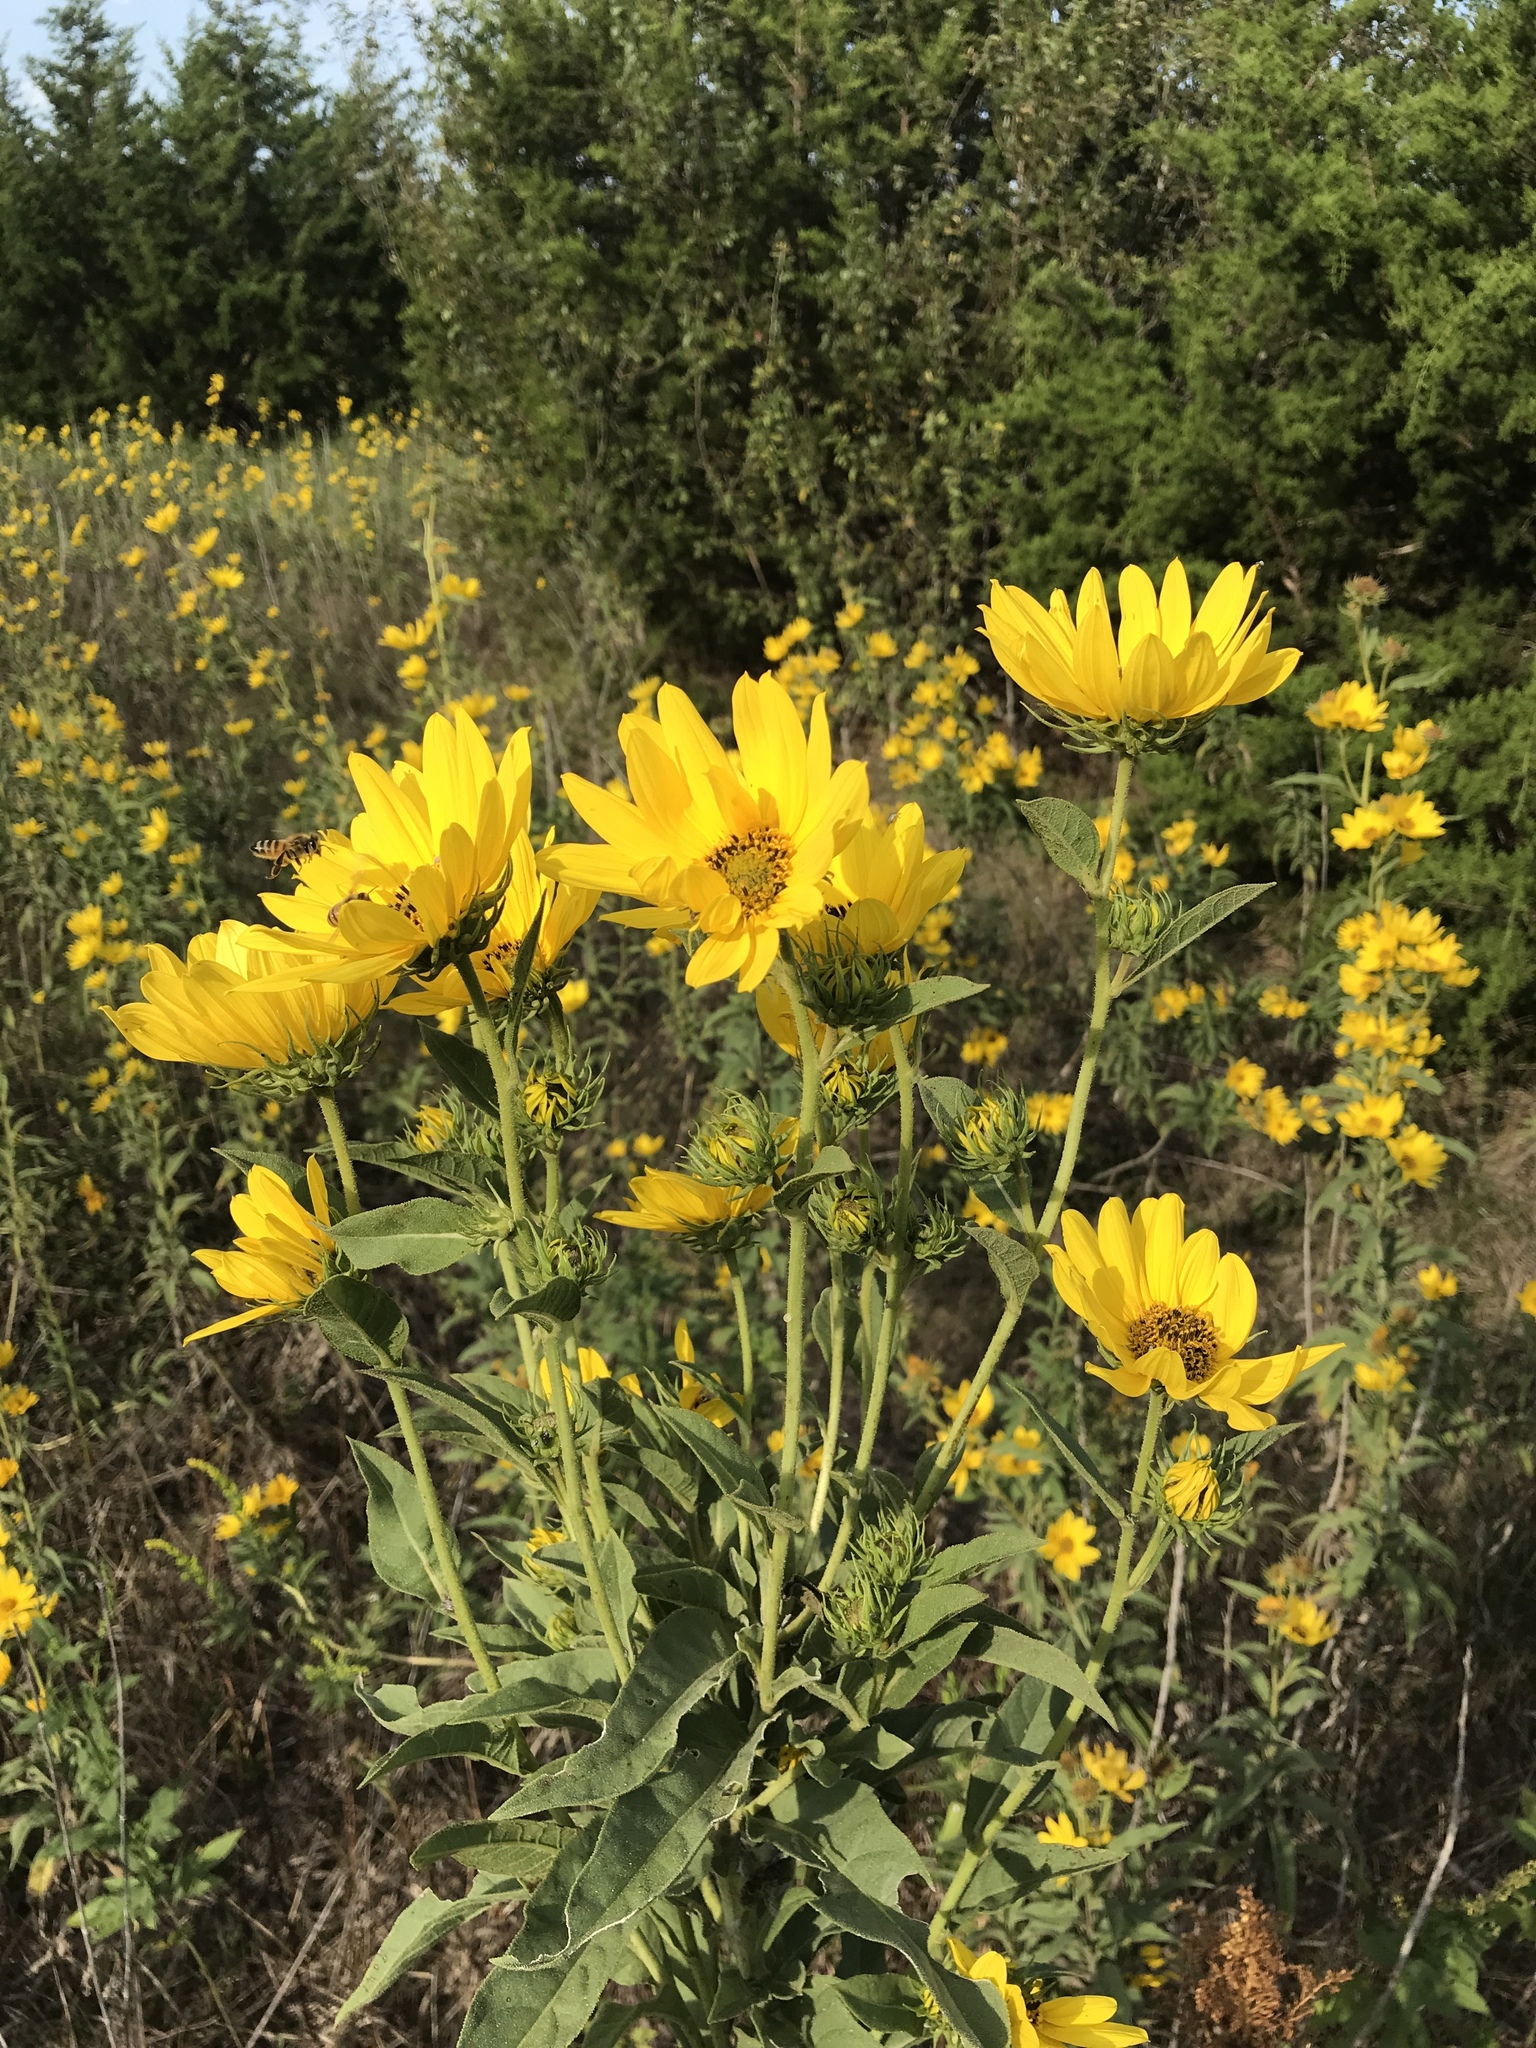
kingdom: Plantae
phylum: Tracheophyta
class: Magnoliopsida
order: Asterales
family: Asteraceae
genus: Helianthus
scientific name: Helianthus maximiliani
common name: Maximilian's sunflower
